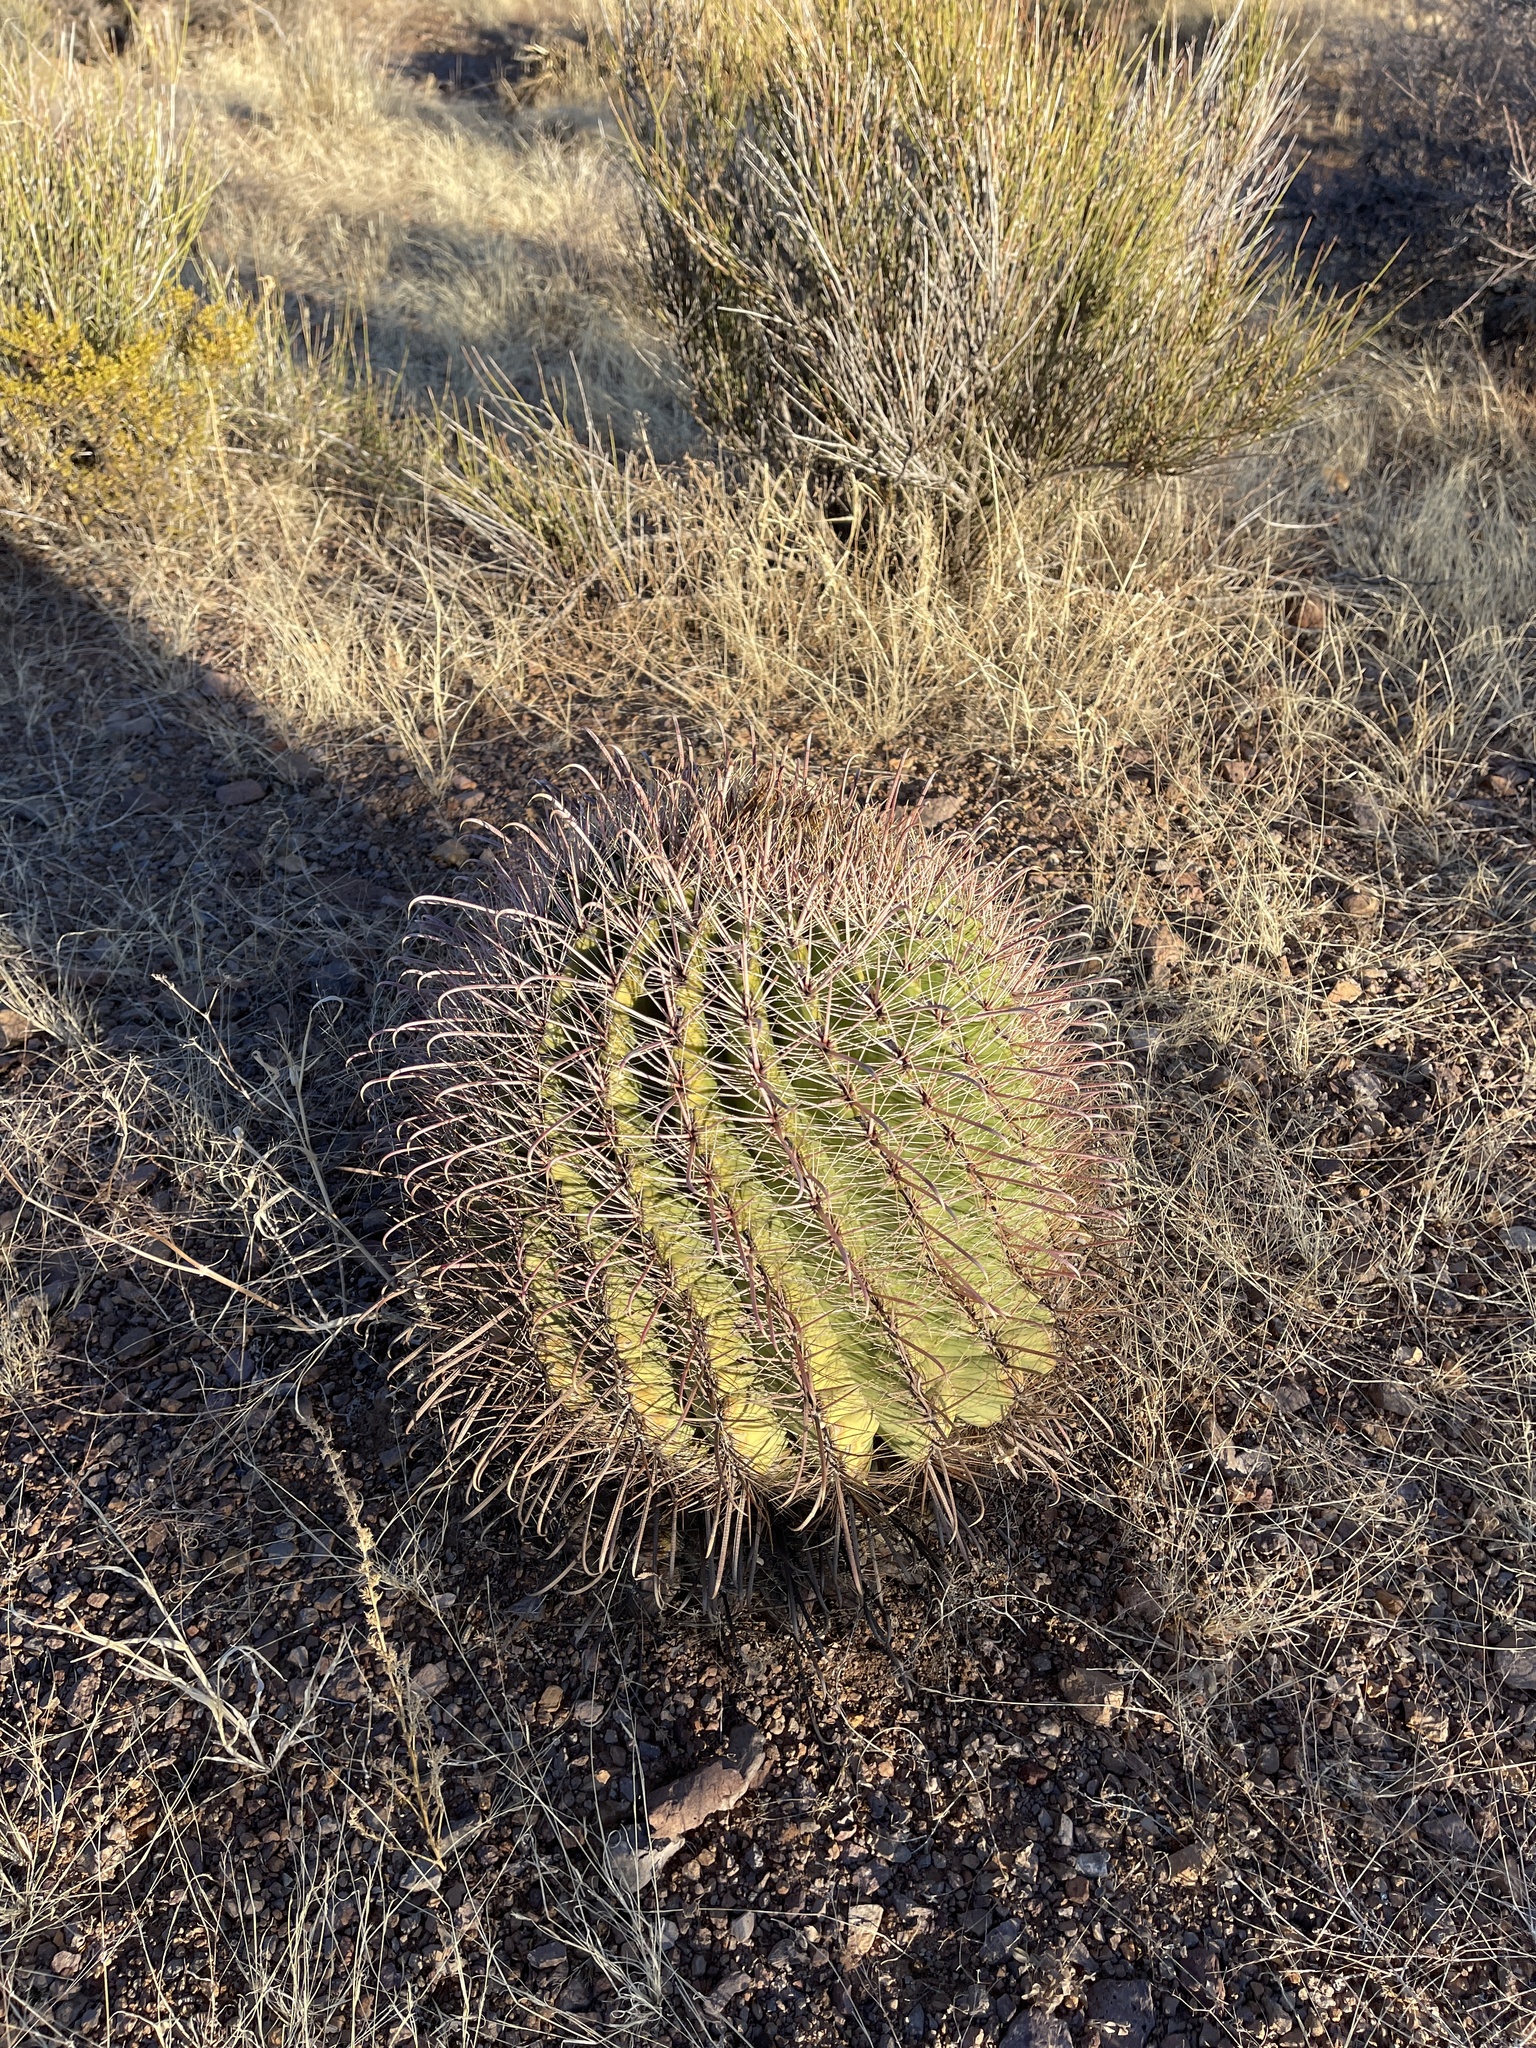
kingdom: Plantae
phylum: Tracheophyta
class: Magnoliopsida
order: Caryophyllales
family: Cactaceae
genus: Ferocactus
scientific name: Ferocactus wislizeni
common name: Candy barrel cactus
